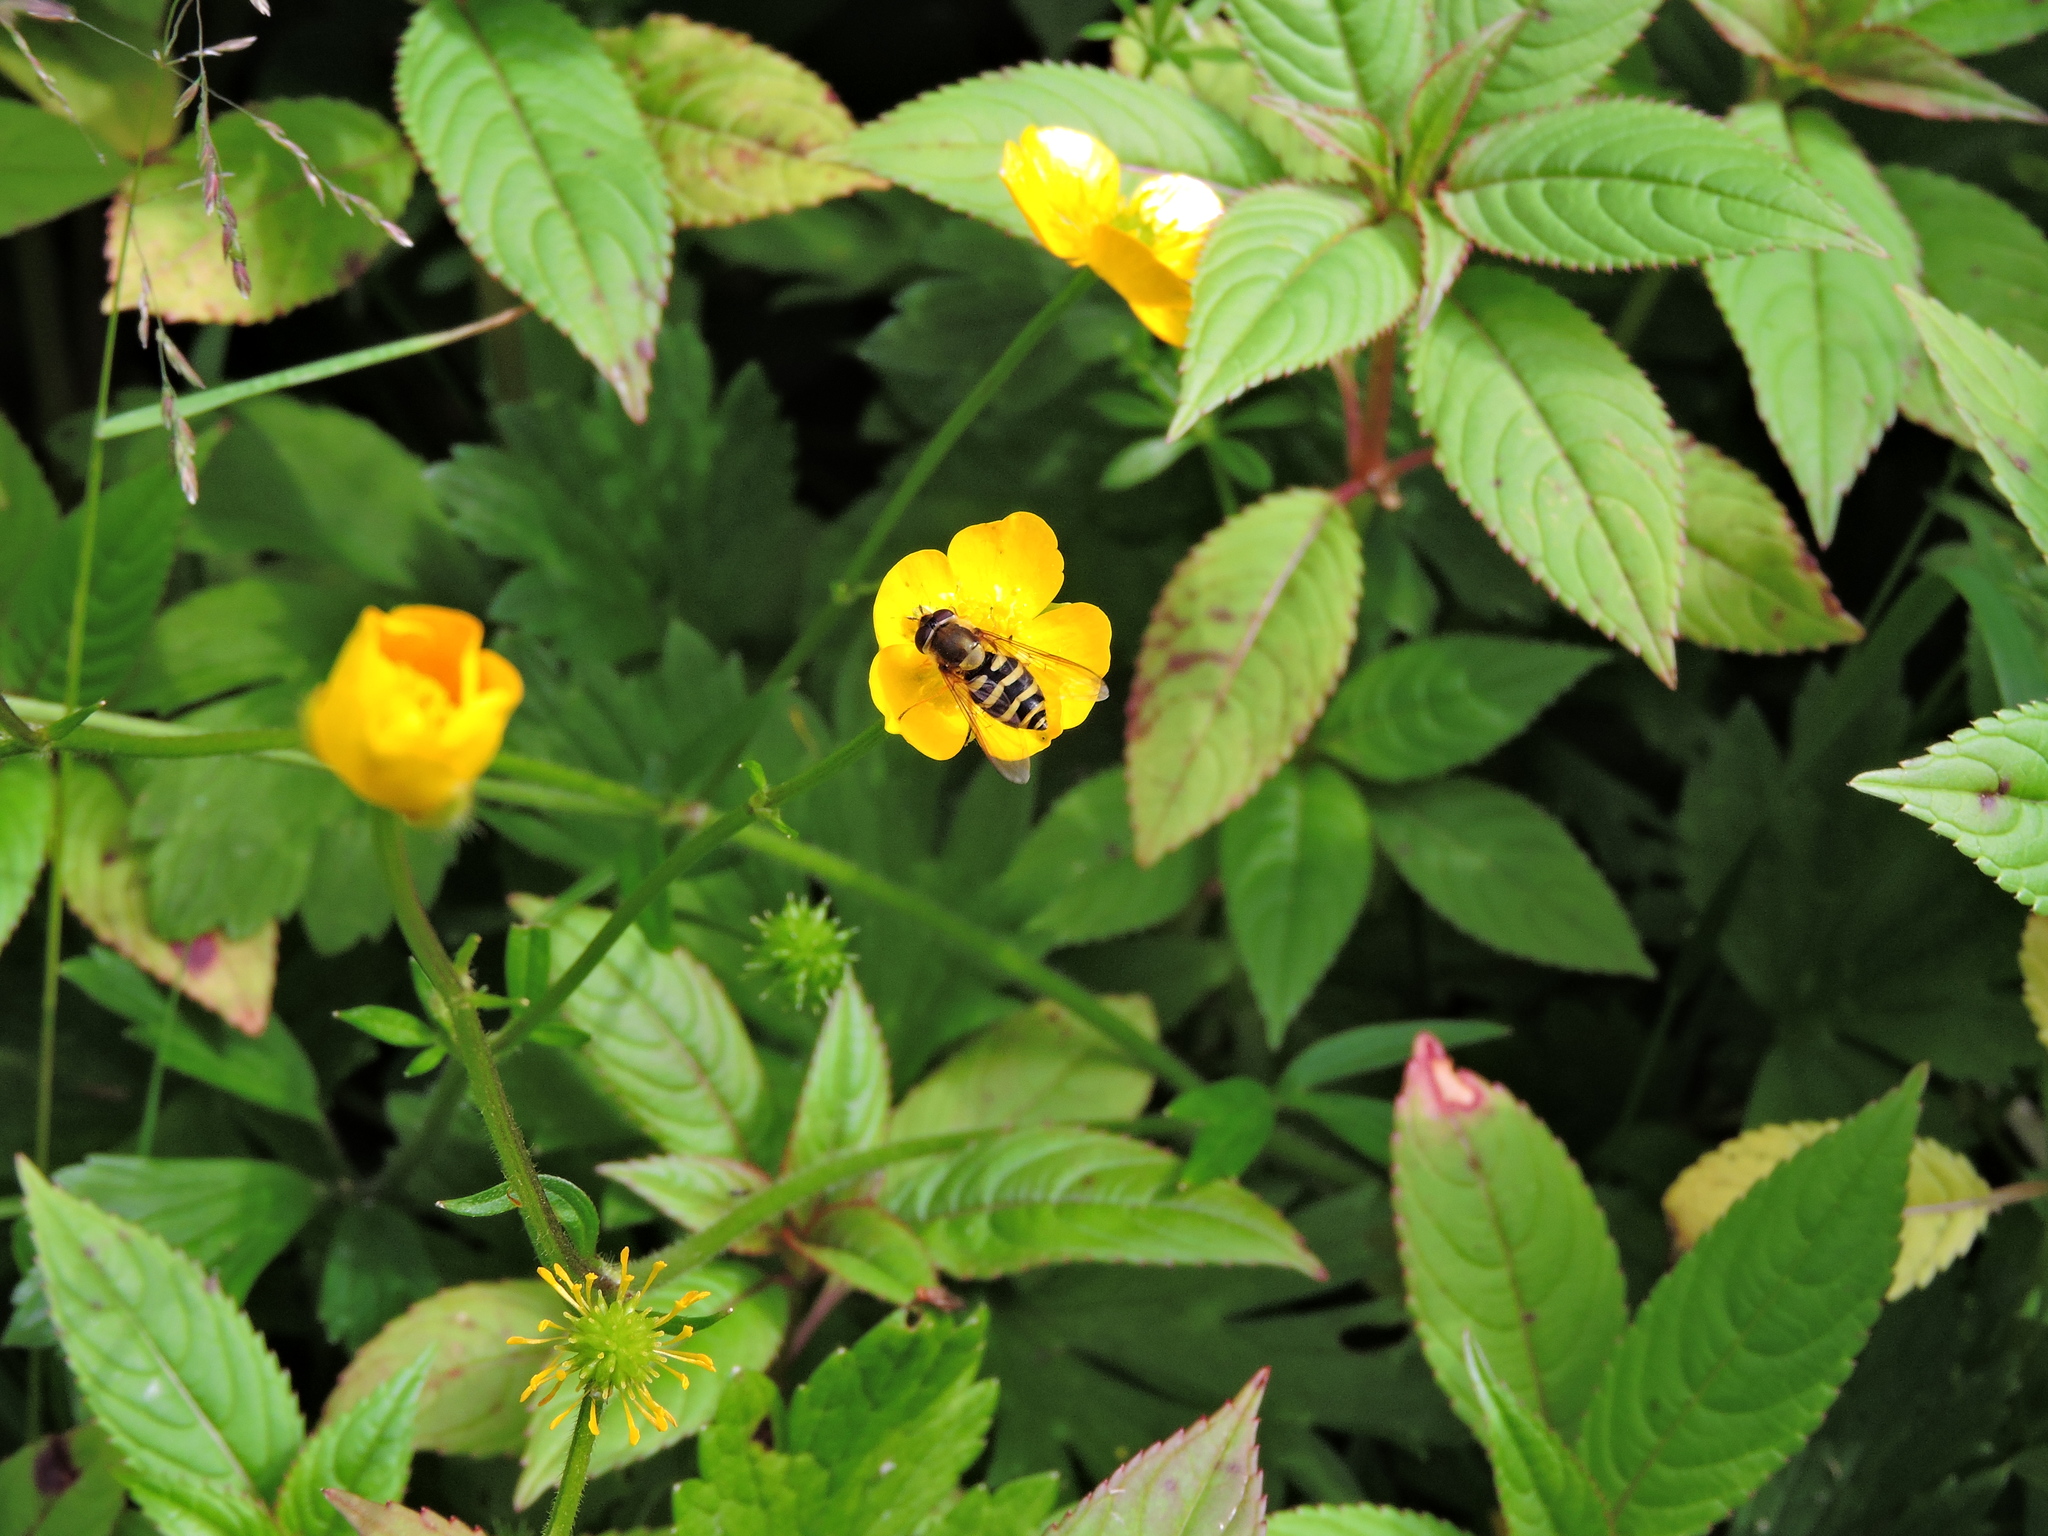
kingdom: Animalia
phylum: Arthropoda
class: Insecta
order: Diptera
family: Syrphidae
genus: Syrphus
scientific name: Syrphus
